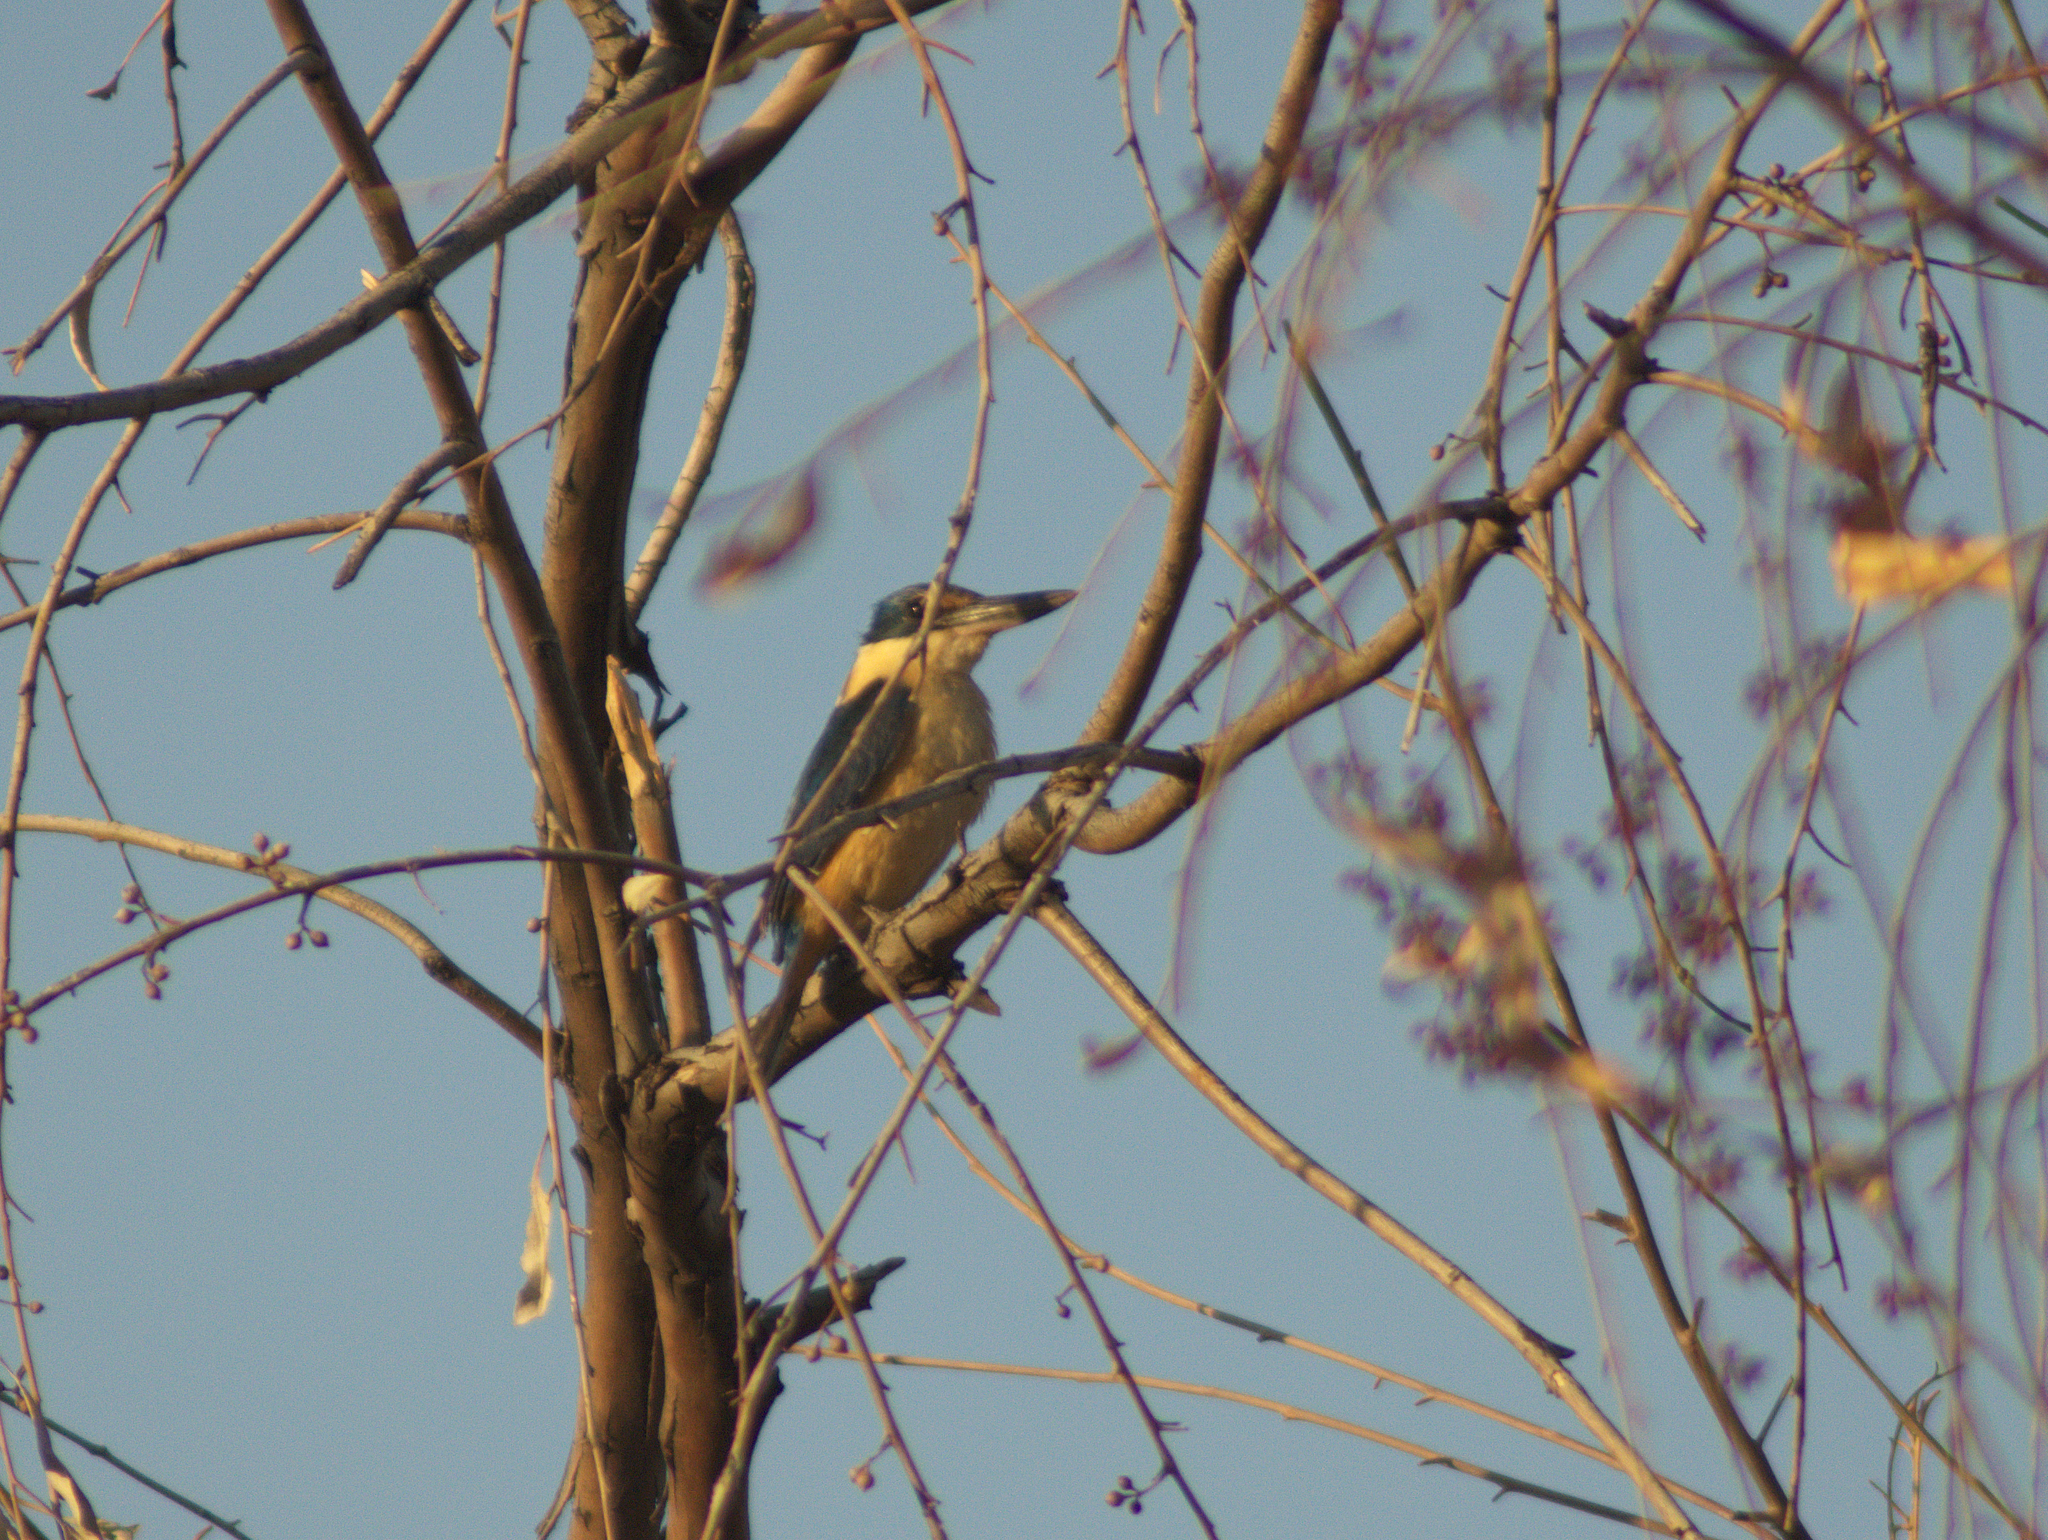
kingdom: Animalia
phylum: Chordata
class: Aves
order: Coraciiformes
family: Alcedinidae
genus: Todiramphus
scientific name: Todiramphus sanctus
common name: Sacred kingfisher
